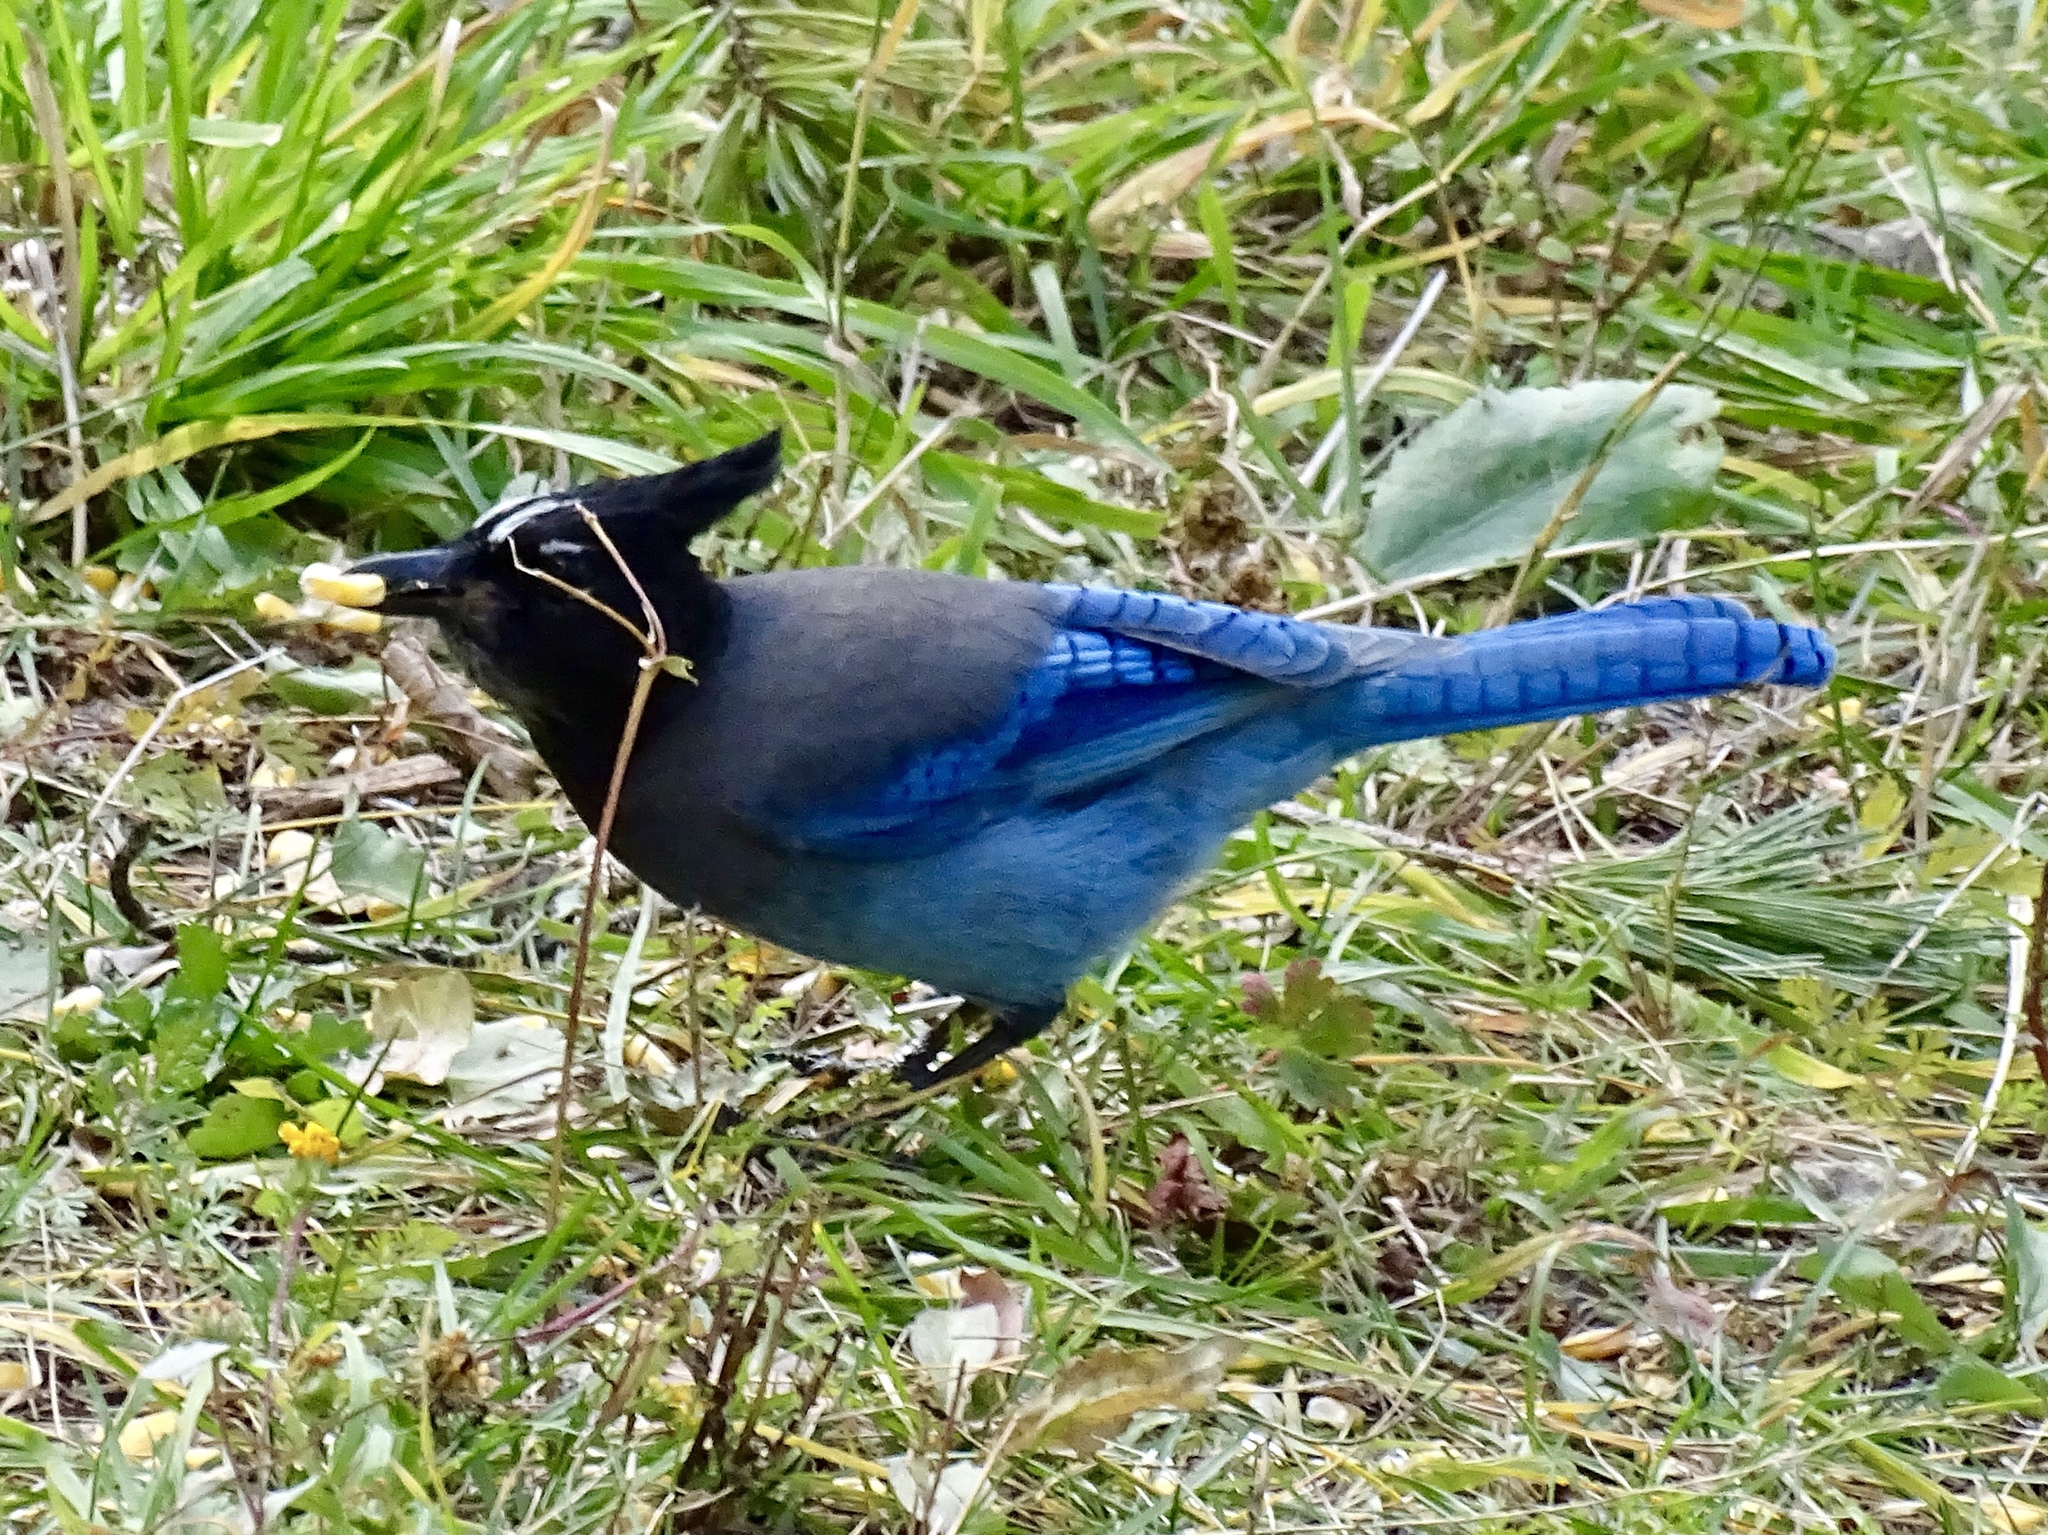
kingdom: Animalia
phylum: Chordata
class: Aves
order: Passeriformes
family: Corvidae
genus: Cyanocitta
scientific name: Cyanocitta stelleri
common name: Steller's jay
